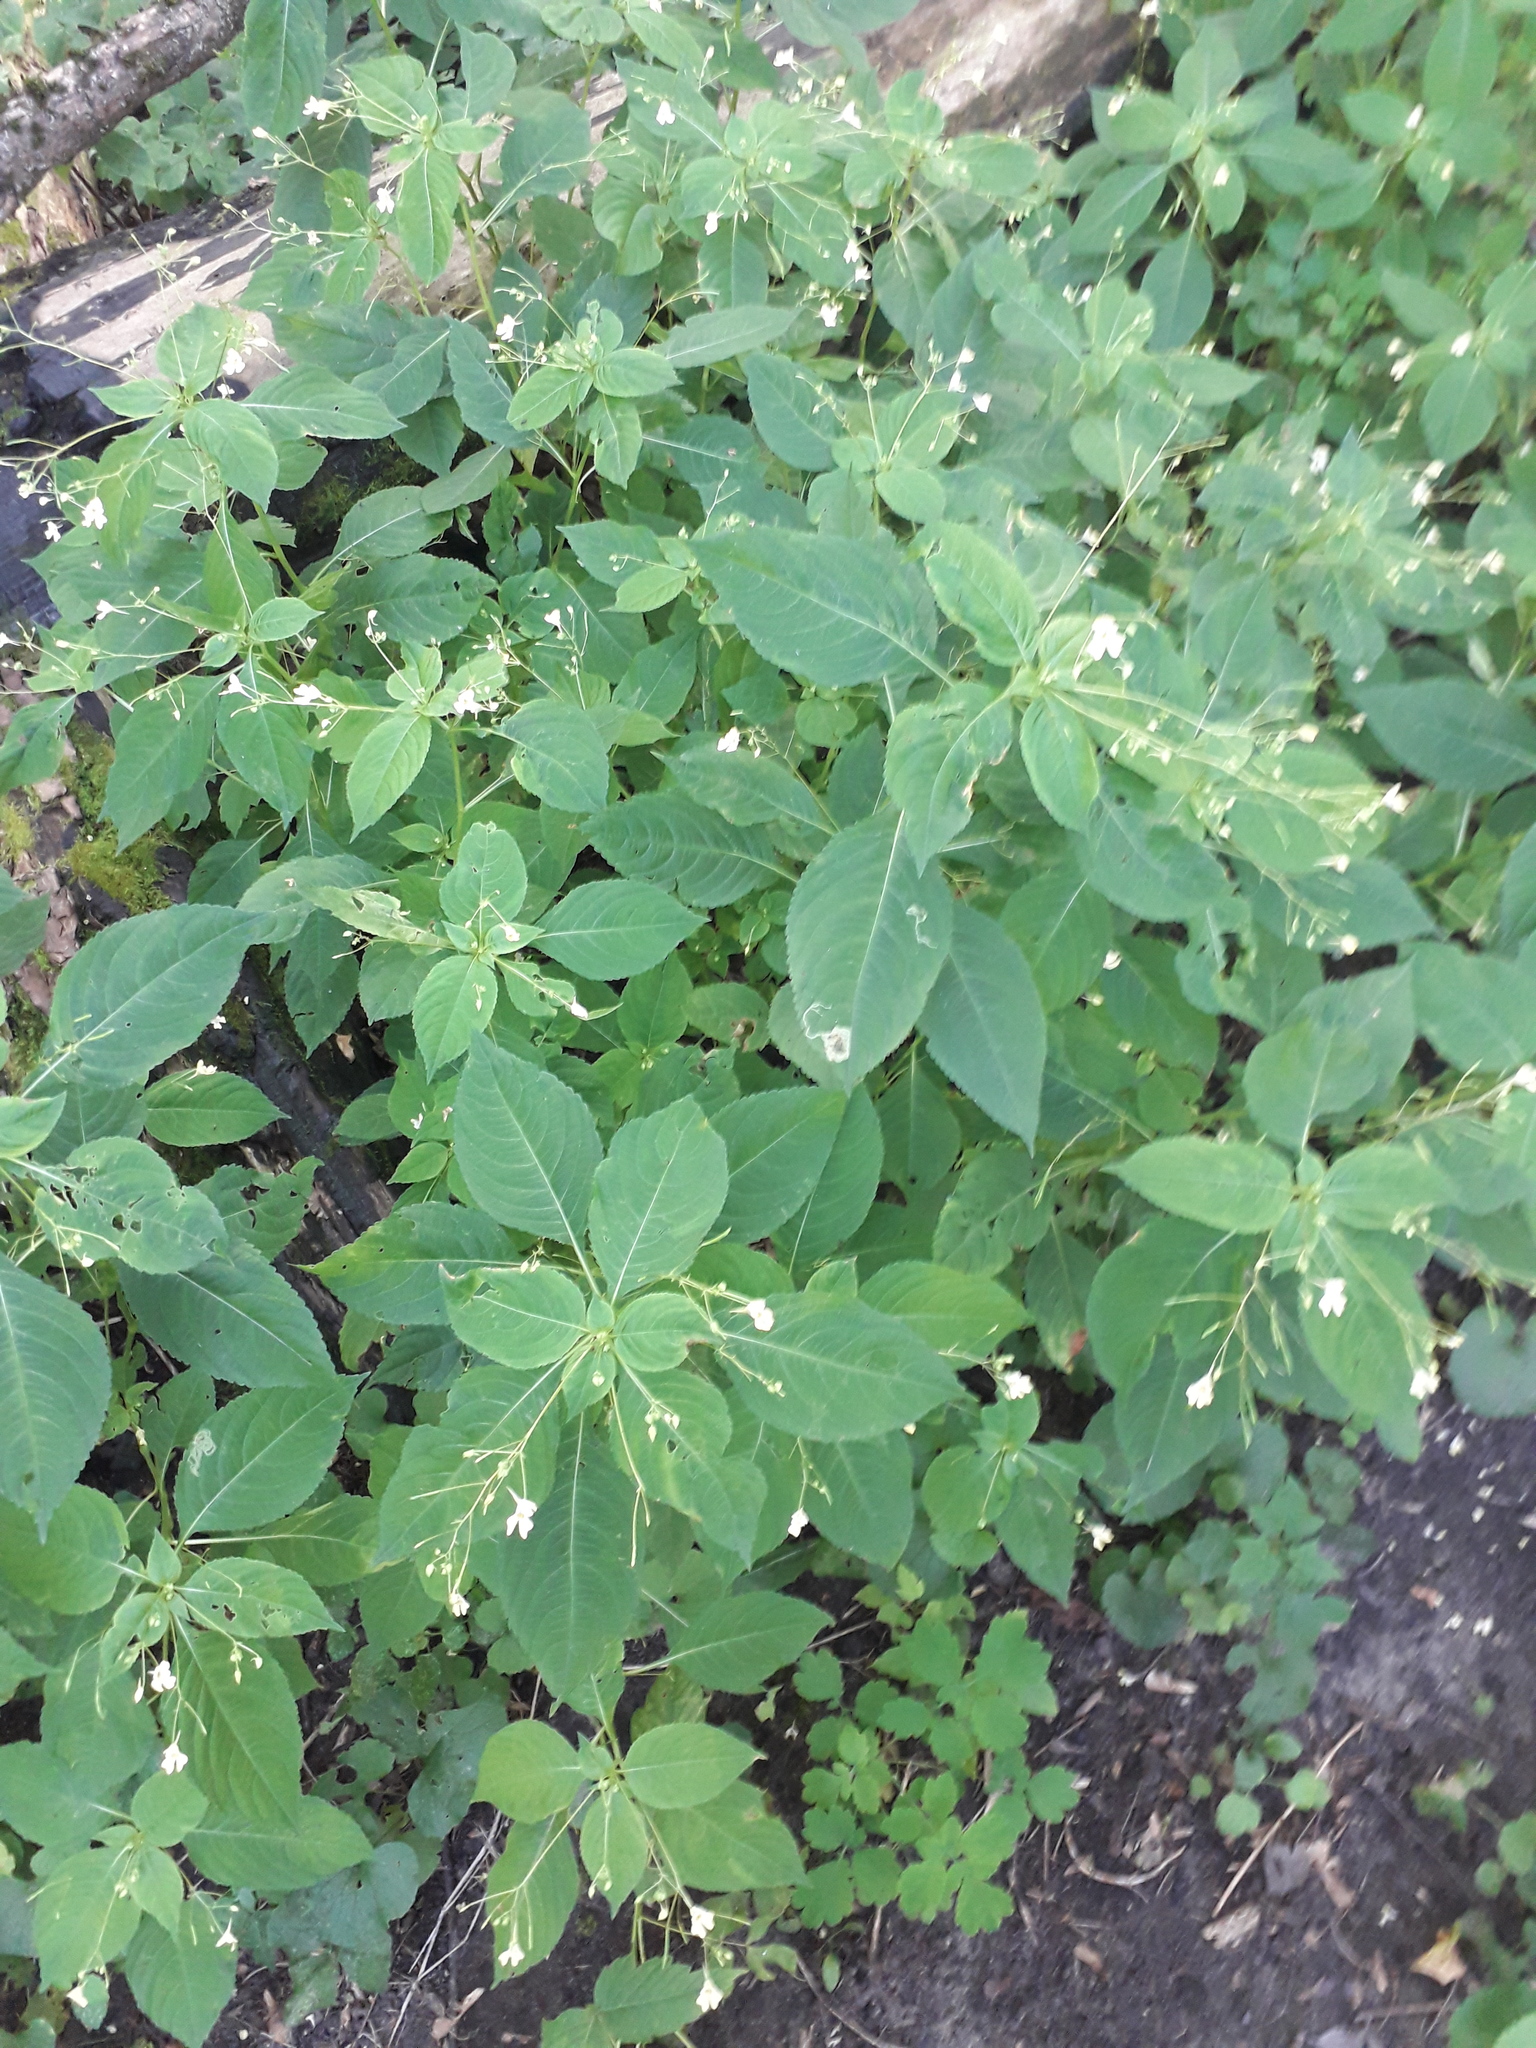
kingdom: Plantae
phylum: Tracheophyta
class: Magnoliopsida
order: Ericales
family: Balsaminaceae
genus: Impatiens
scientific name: Impatiens parviflora
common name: Small balsam
